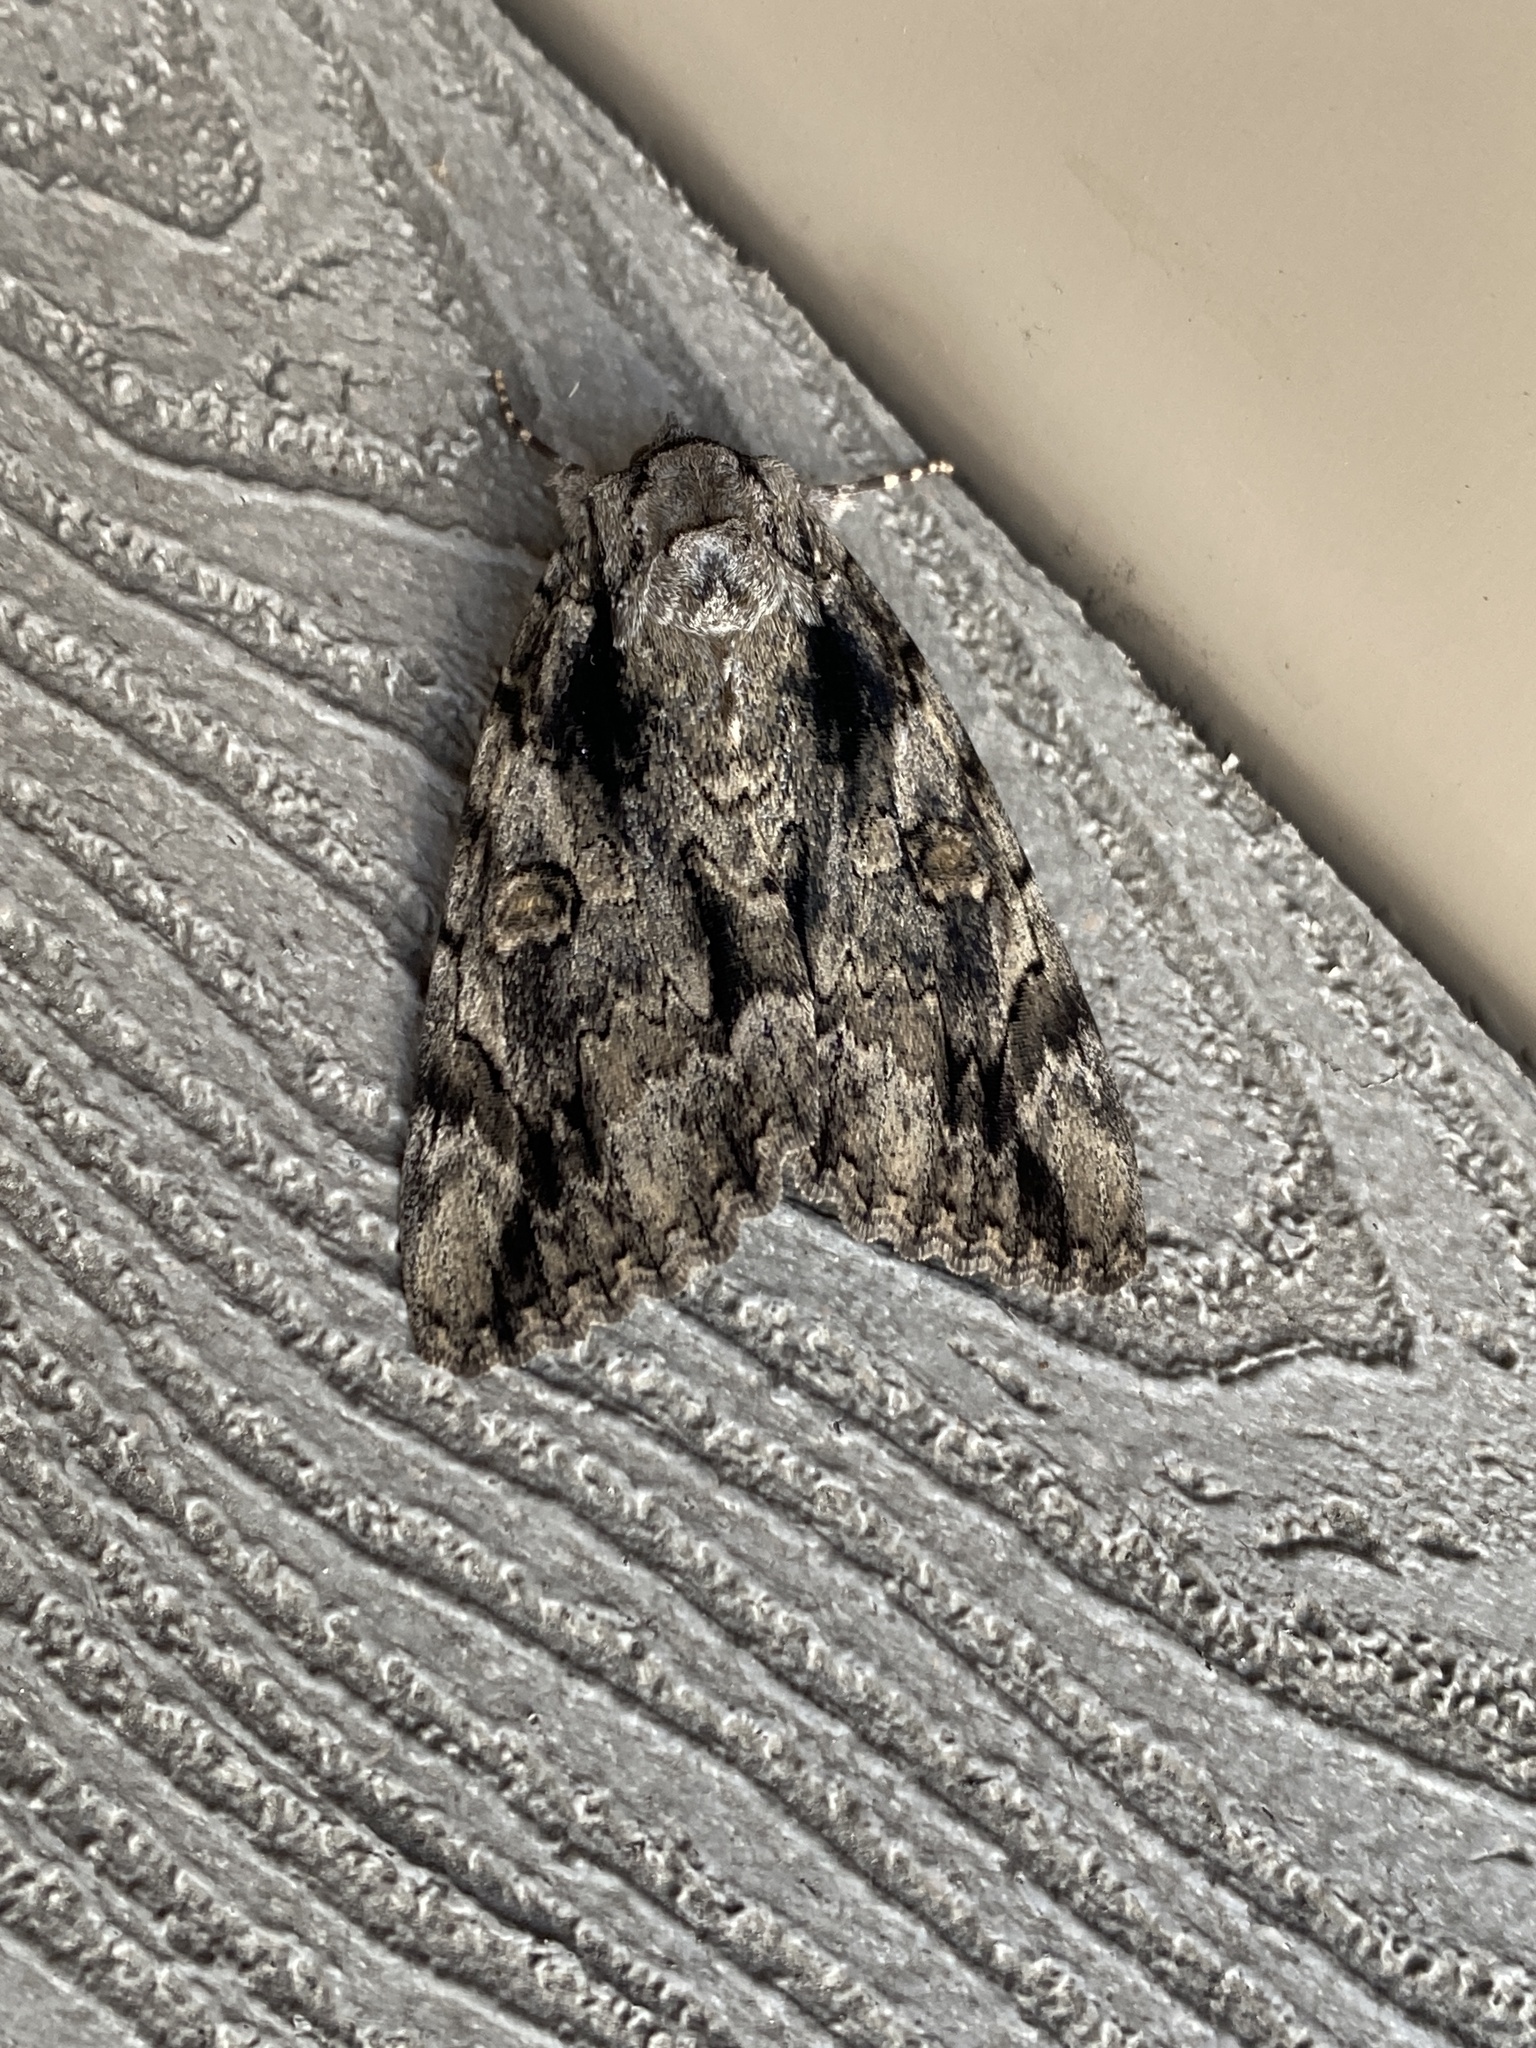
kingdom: Animalia
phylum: Arthropoda
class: Insecta
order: Lepidoptera
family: Erebidae
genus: Catocala
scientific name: Catocala neogama
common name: Bride underwing
